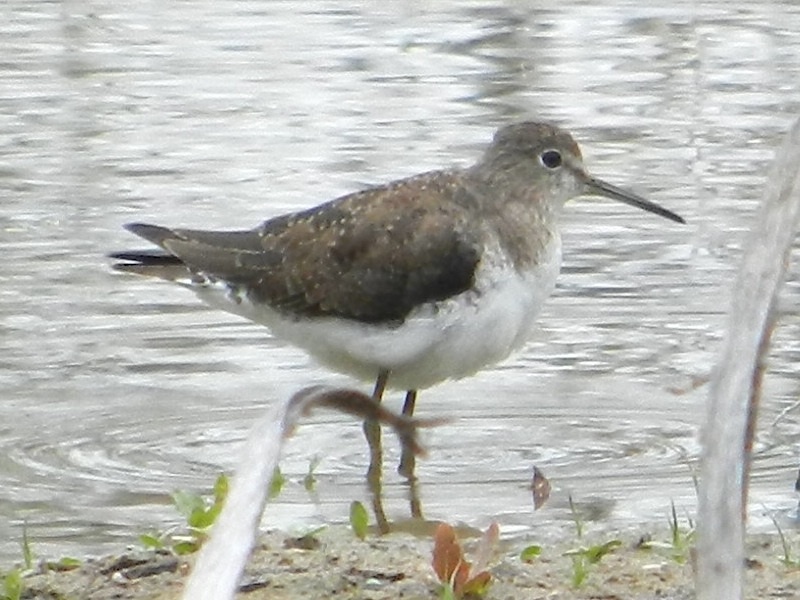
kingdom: Animalia
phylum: Chordata
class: Aves
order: Charadriiformes
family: Scolopacidae
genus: Tringa
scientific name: Tringa solitaria
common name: Solitary sandpiper
